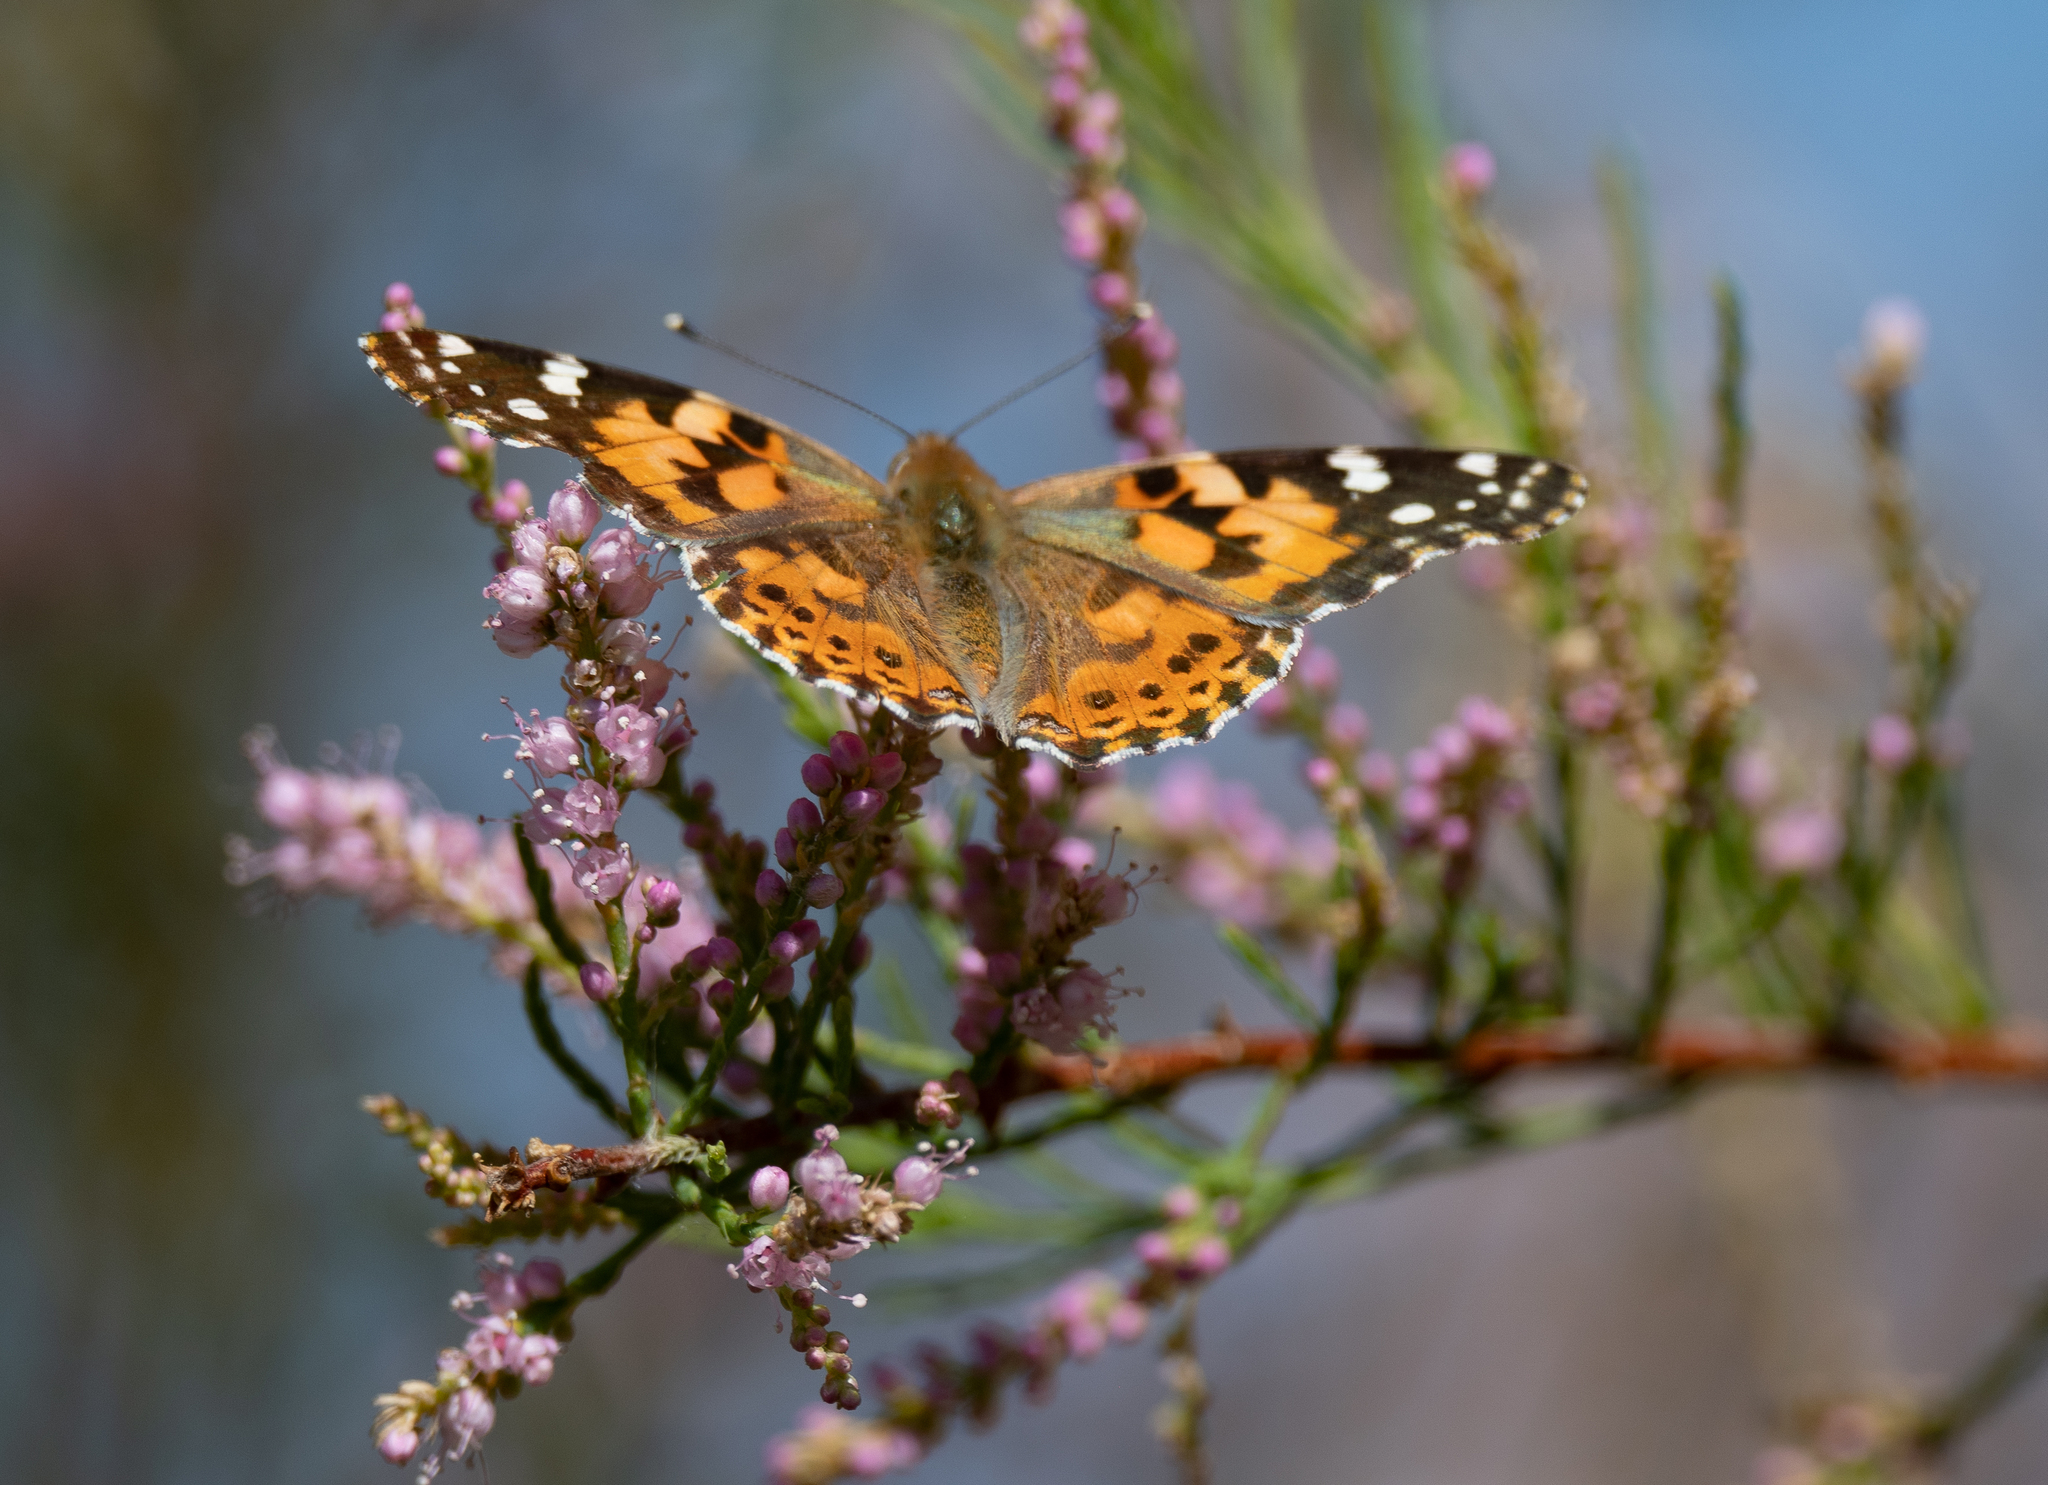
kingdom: Animalia
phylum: Arthropoda
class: Insecta
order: Lepidoptera
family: Nymphalidae
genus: Vanessa
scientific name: Vanessa cardui
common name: Painted lady
